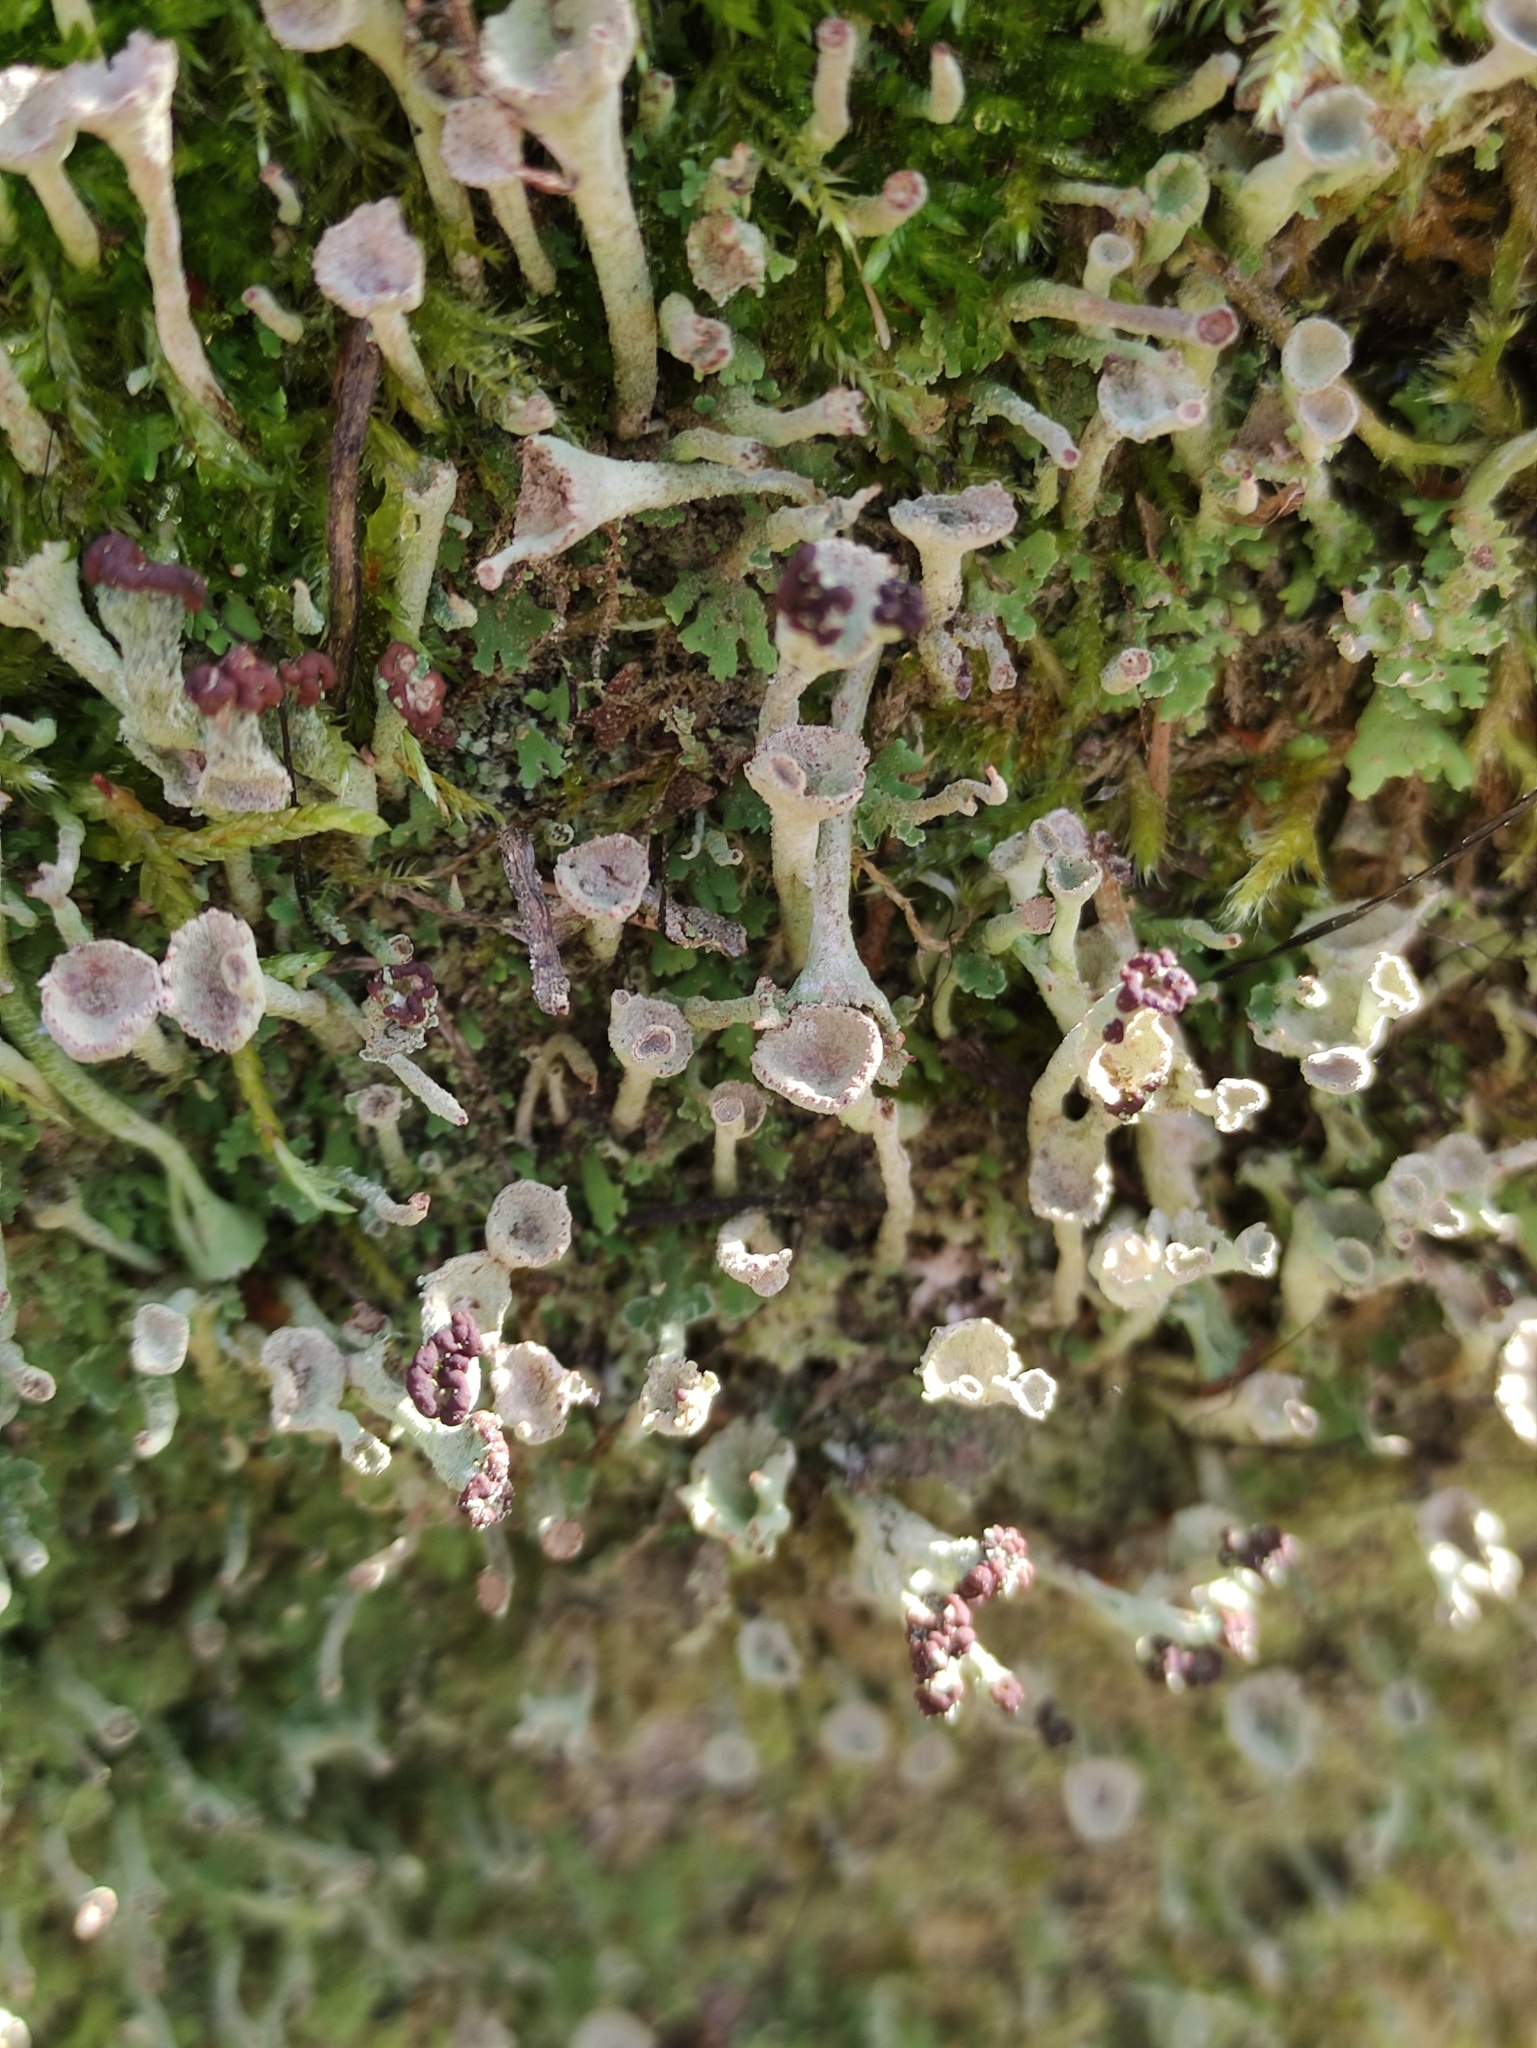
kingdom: Fungi
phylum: Ascomycota
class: Lecanoromycetes
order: Lecanorales
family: Cladoniaceae
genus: Cladonia
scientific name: Cladonia fimbriata
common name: Powdered trumpet lichen
